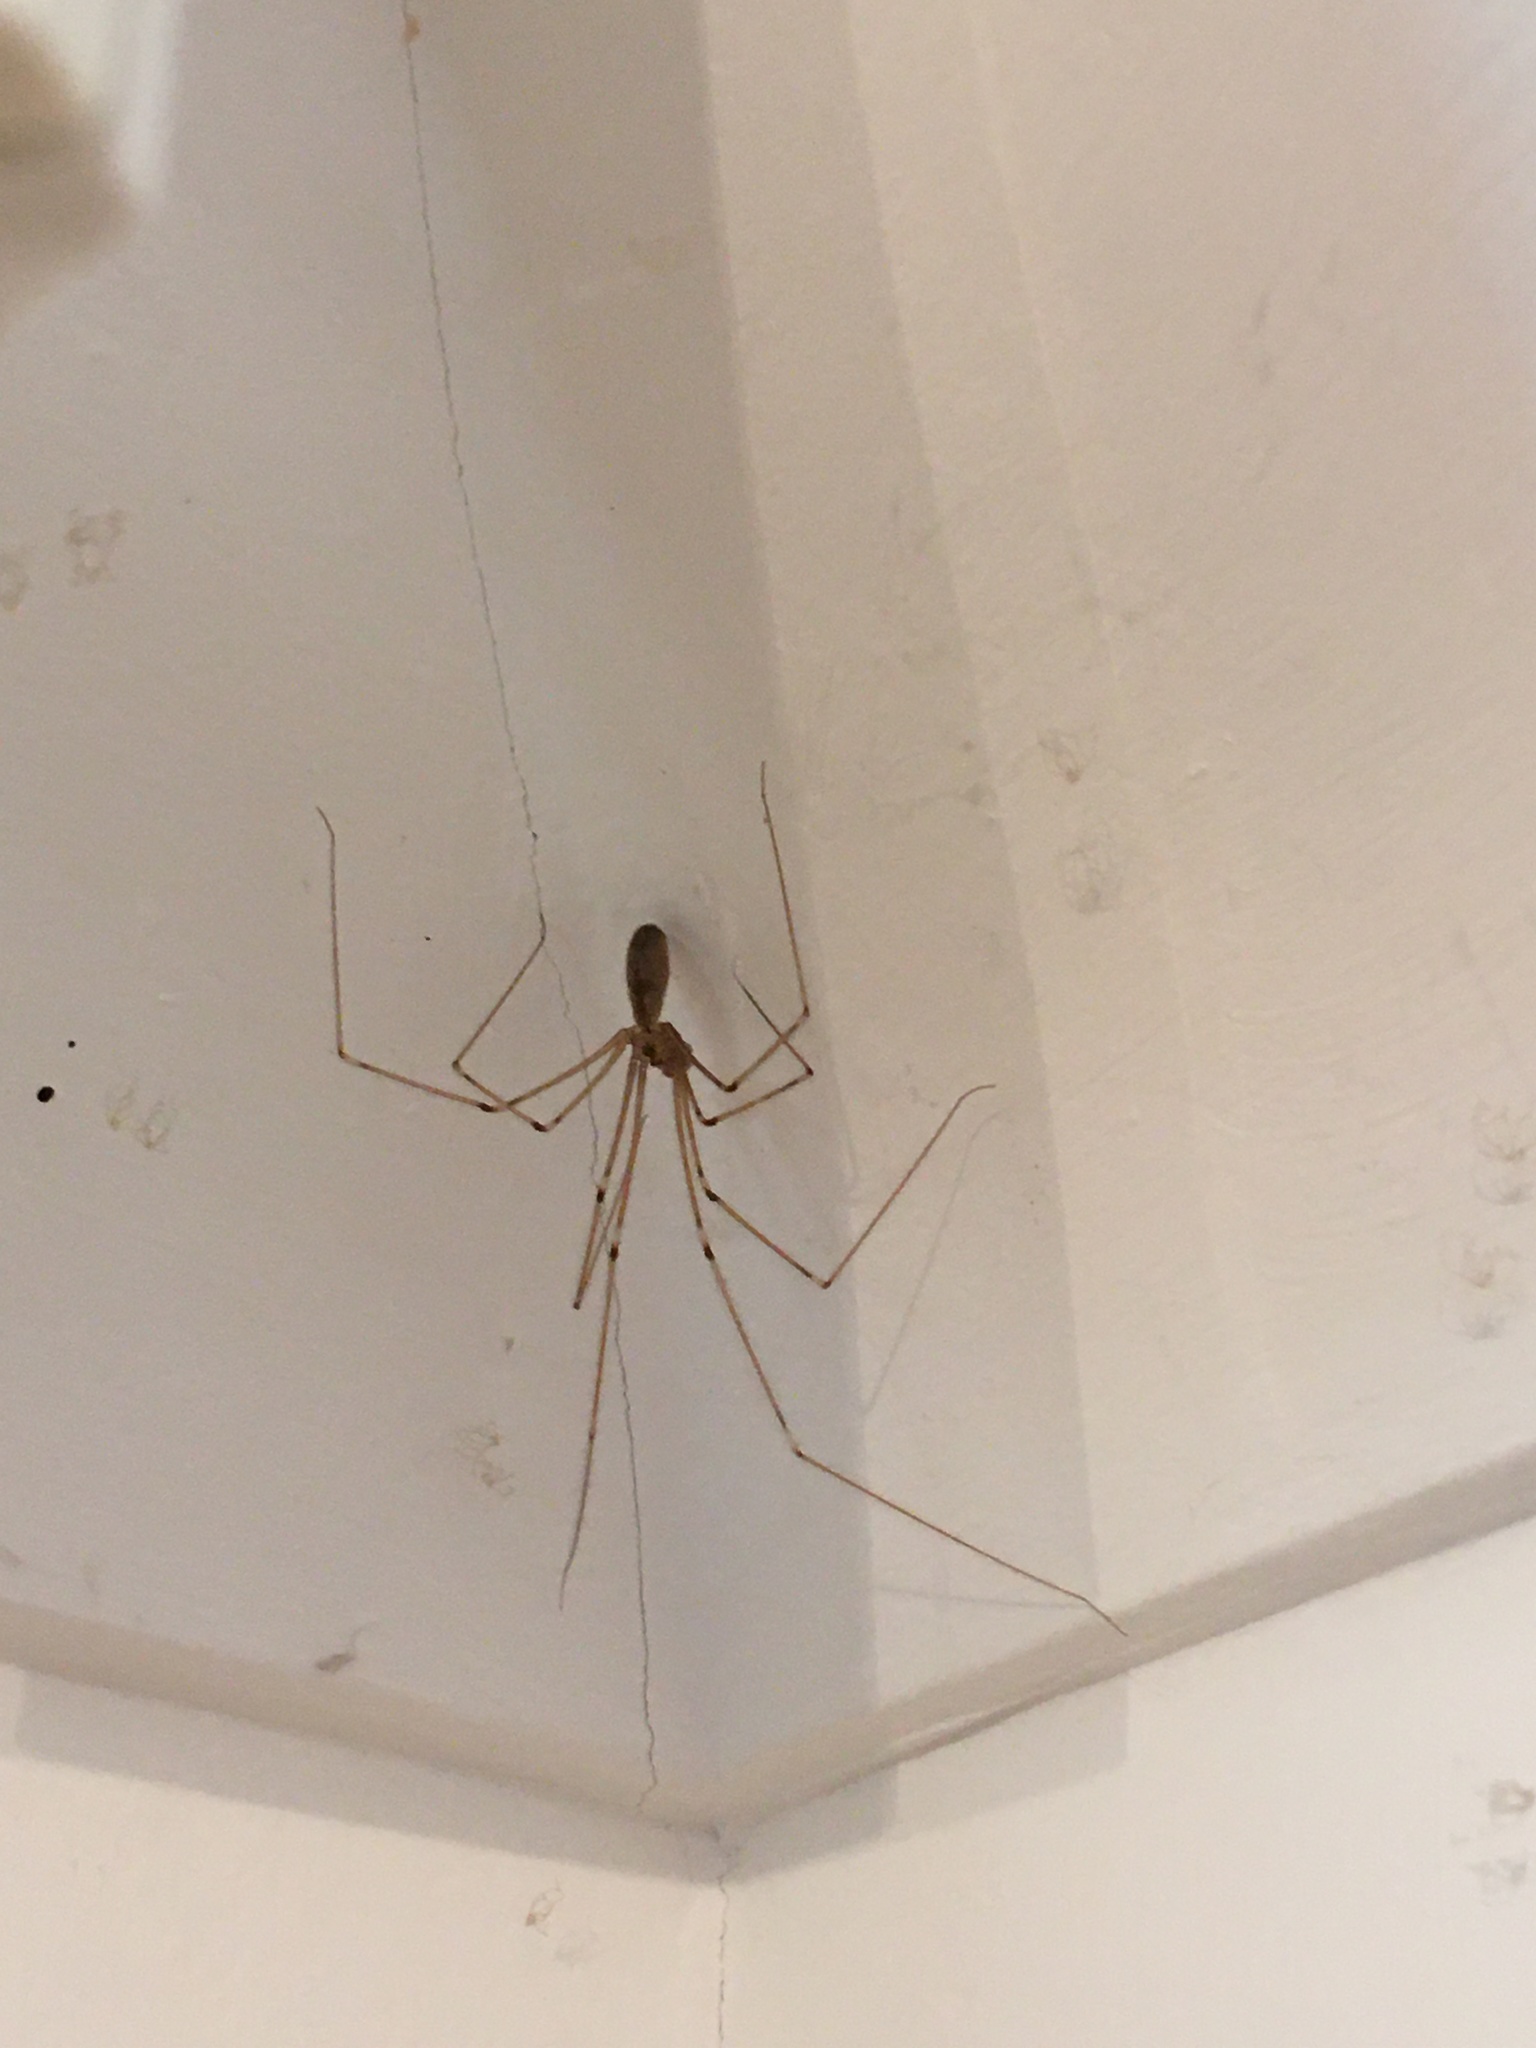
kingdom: Animalia
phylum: Arthropoda
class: Arachnida
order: Araneae
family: Pholcidae
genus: Pholcus
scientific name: Pholcus phalangioides
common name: Longbodied cellar spider
